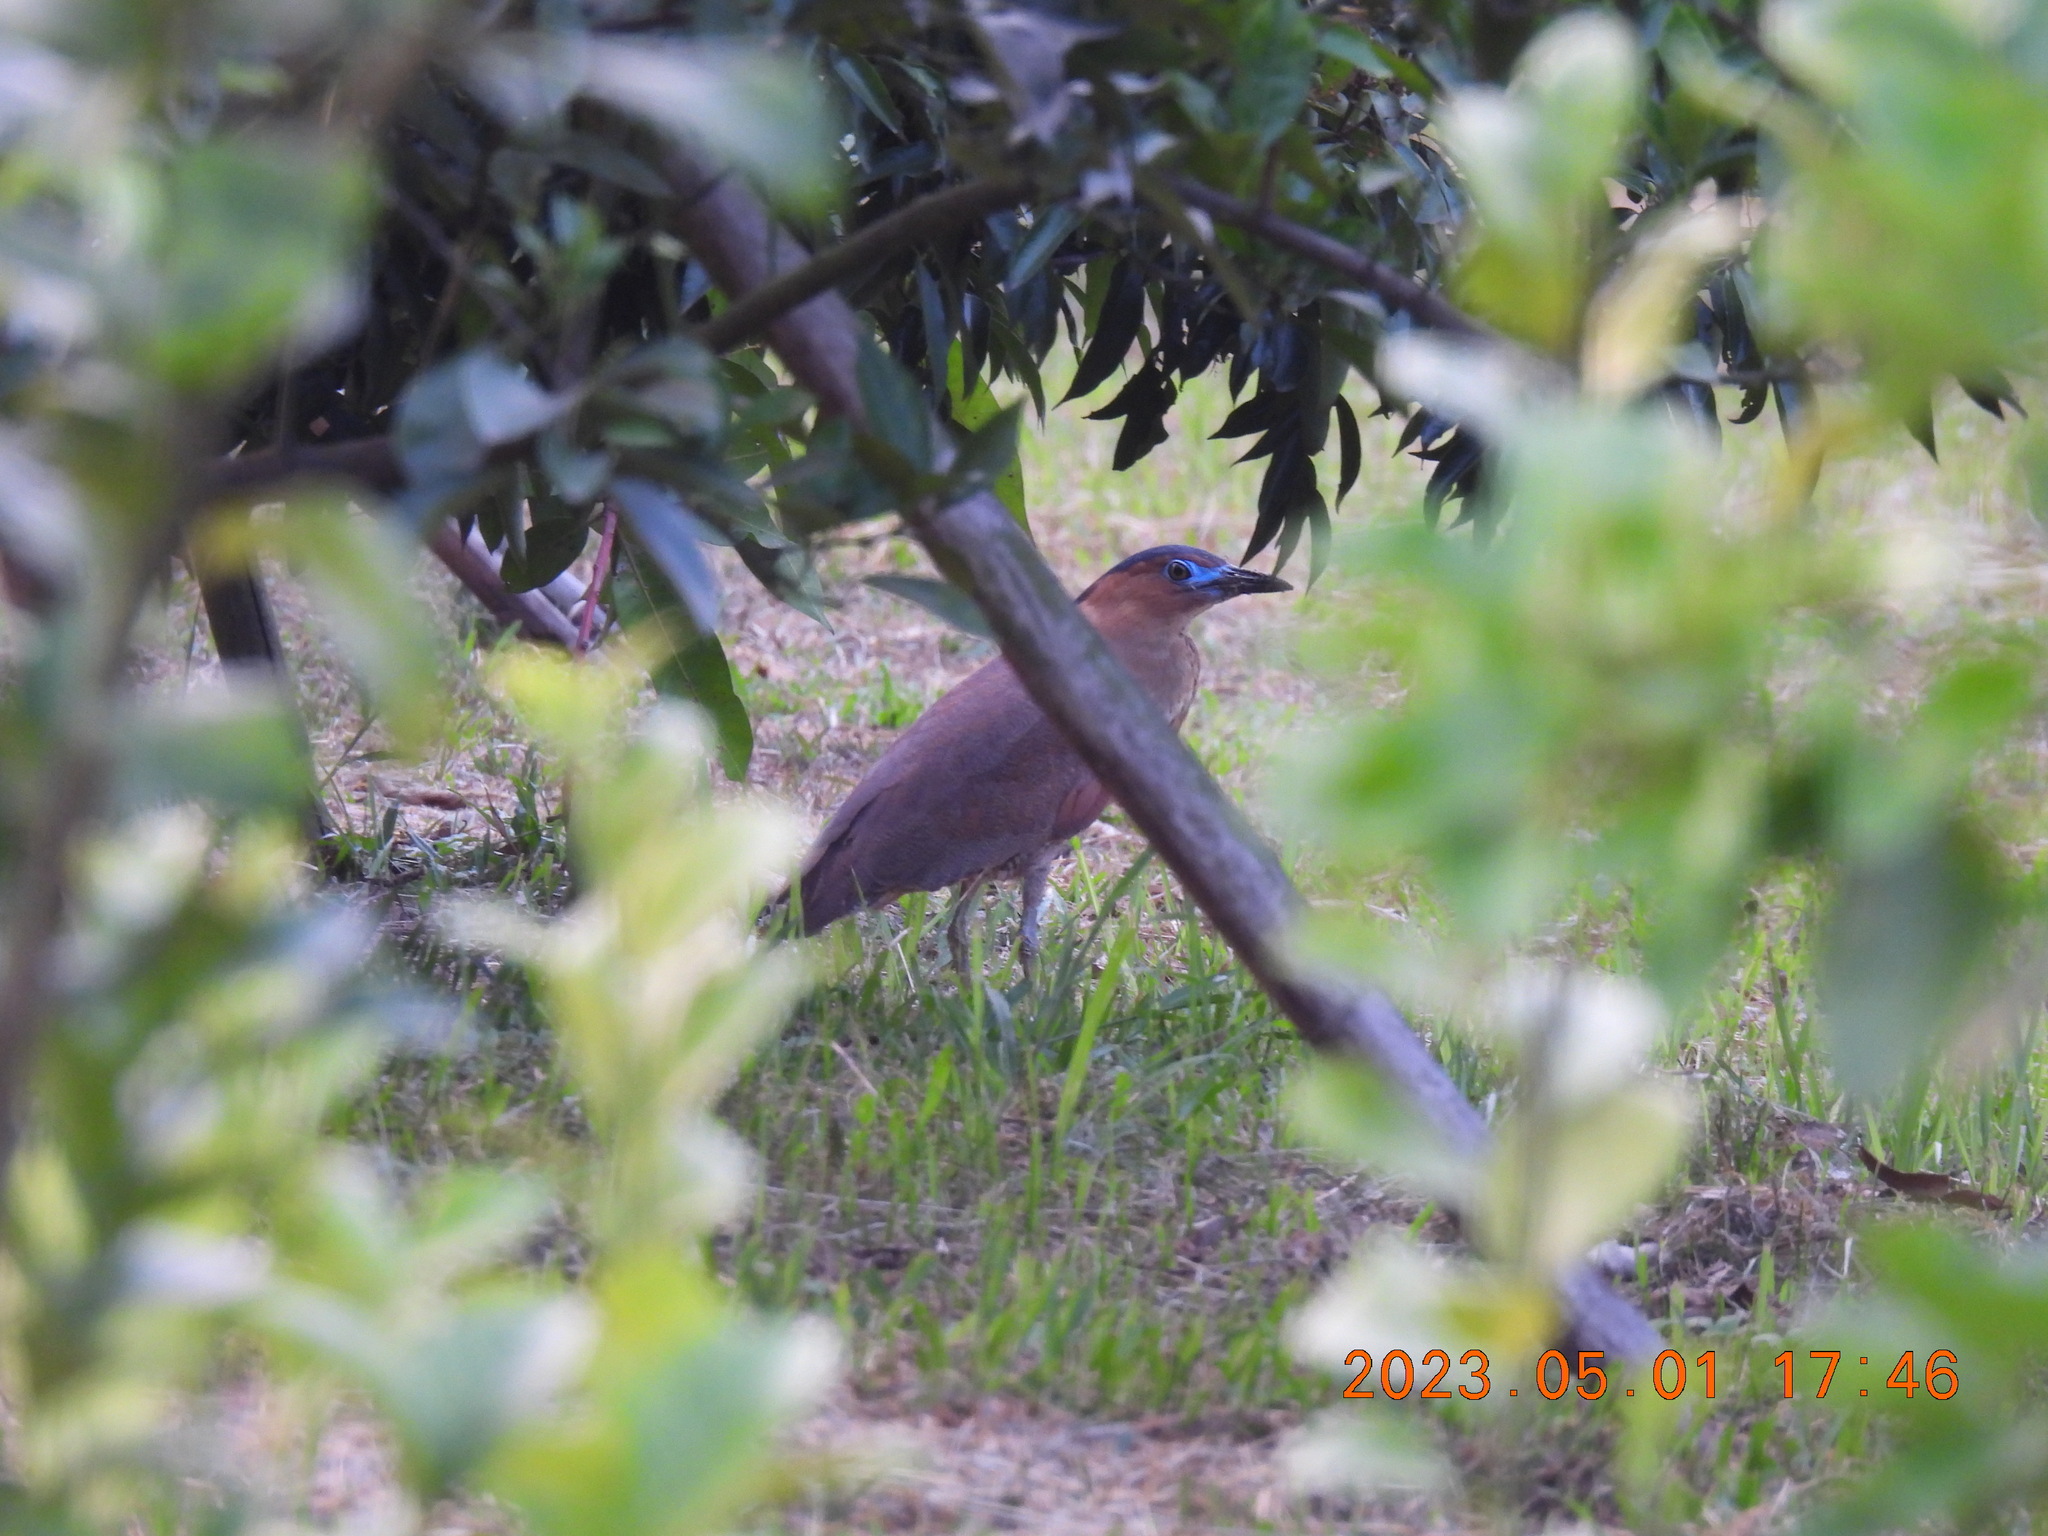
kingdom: Animalia
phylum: Chordata
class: Aves
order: Pelecaniformes
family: Ardeidae
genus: Gorsachius
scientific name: Gorsachius melanolophus
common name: Malayan night heron
